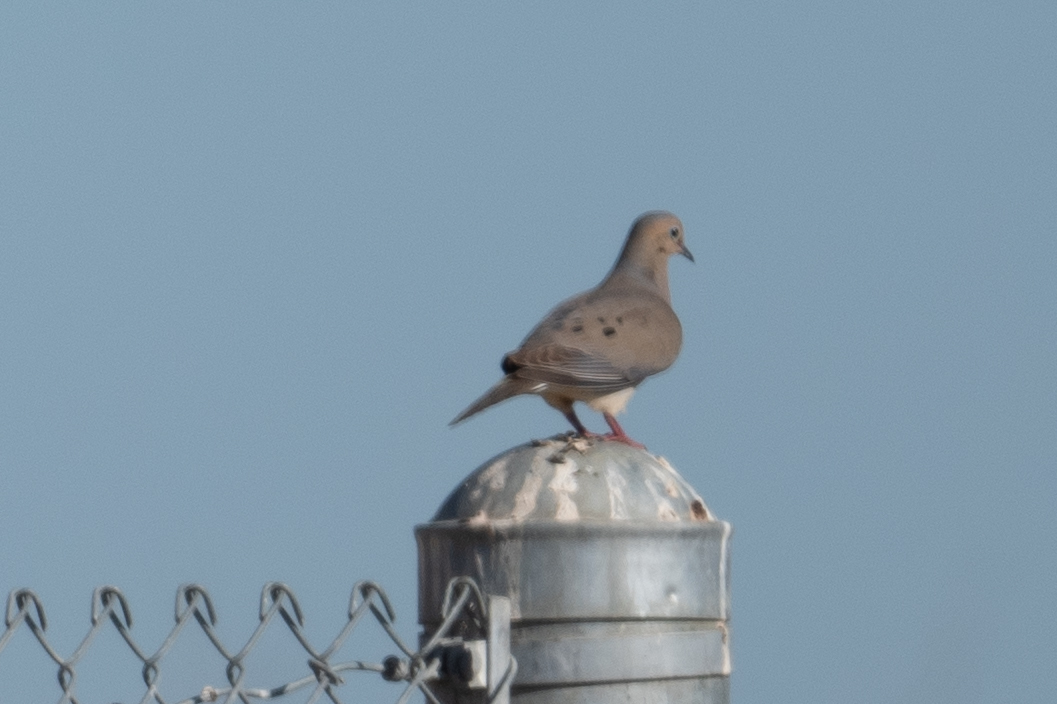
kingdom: Animalia
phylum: Chordata
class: Aves
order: Columbiformes
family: Columbidae
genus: Zenaida
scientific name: Zenaida macroura
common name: Mourning dove
